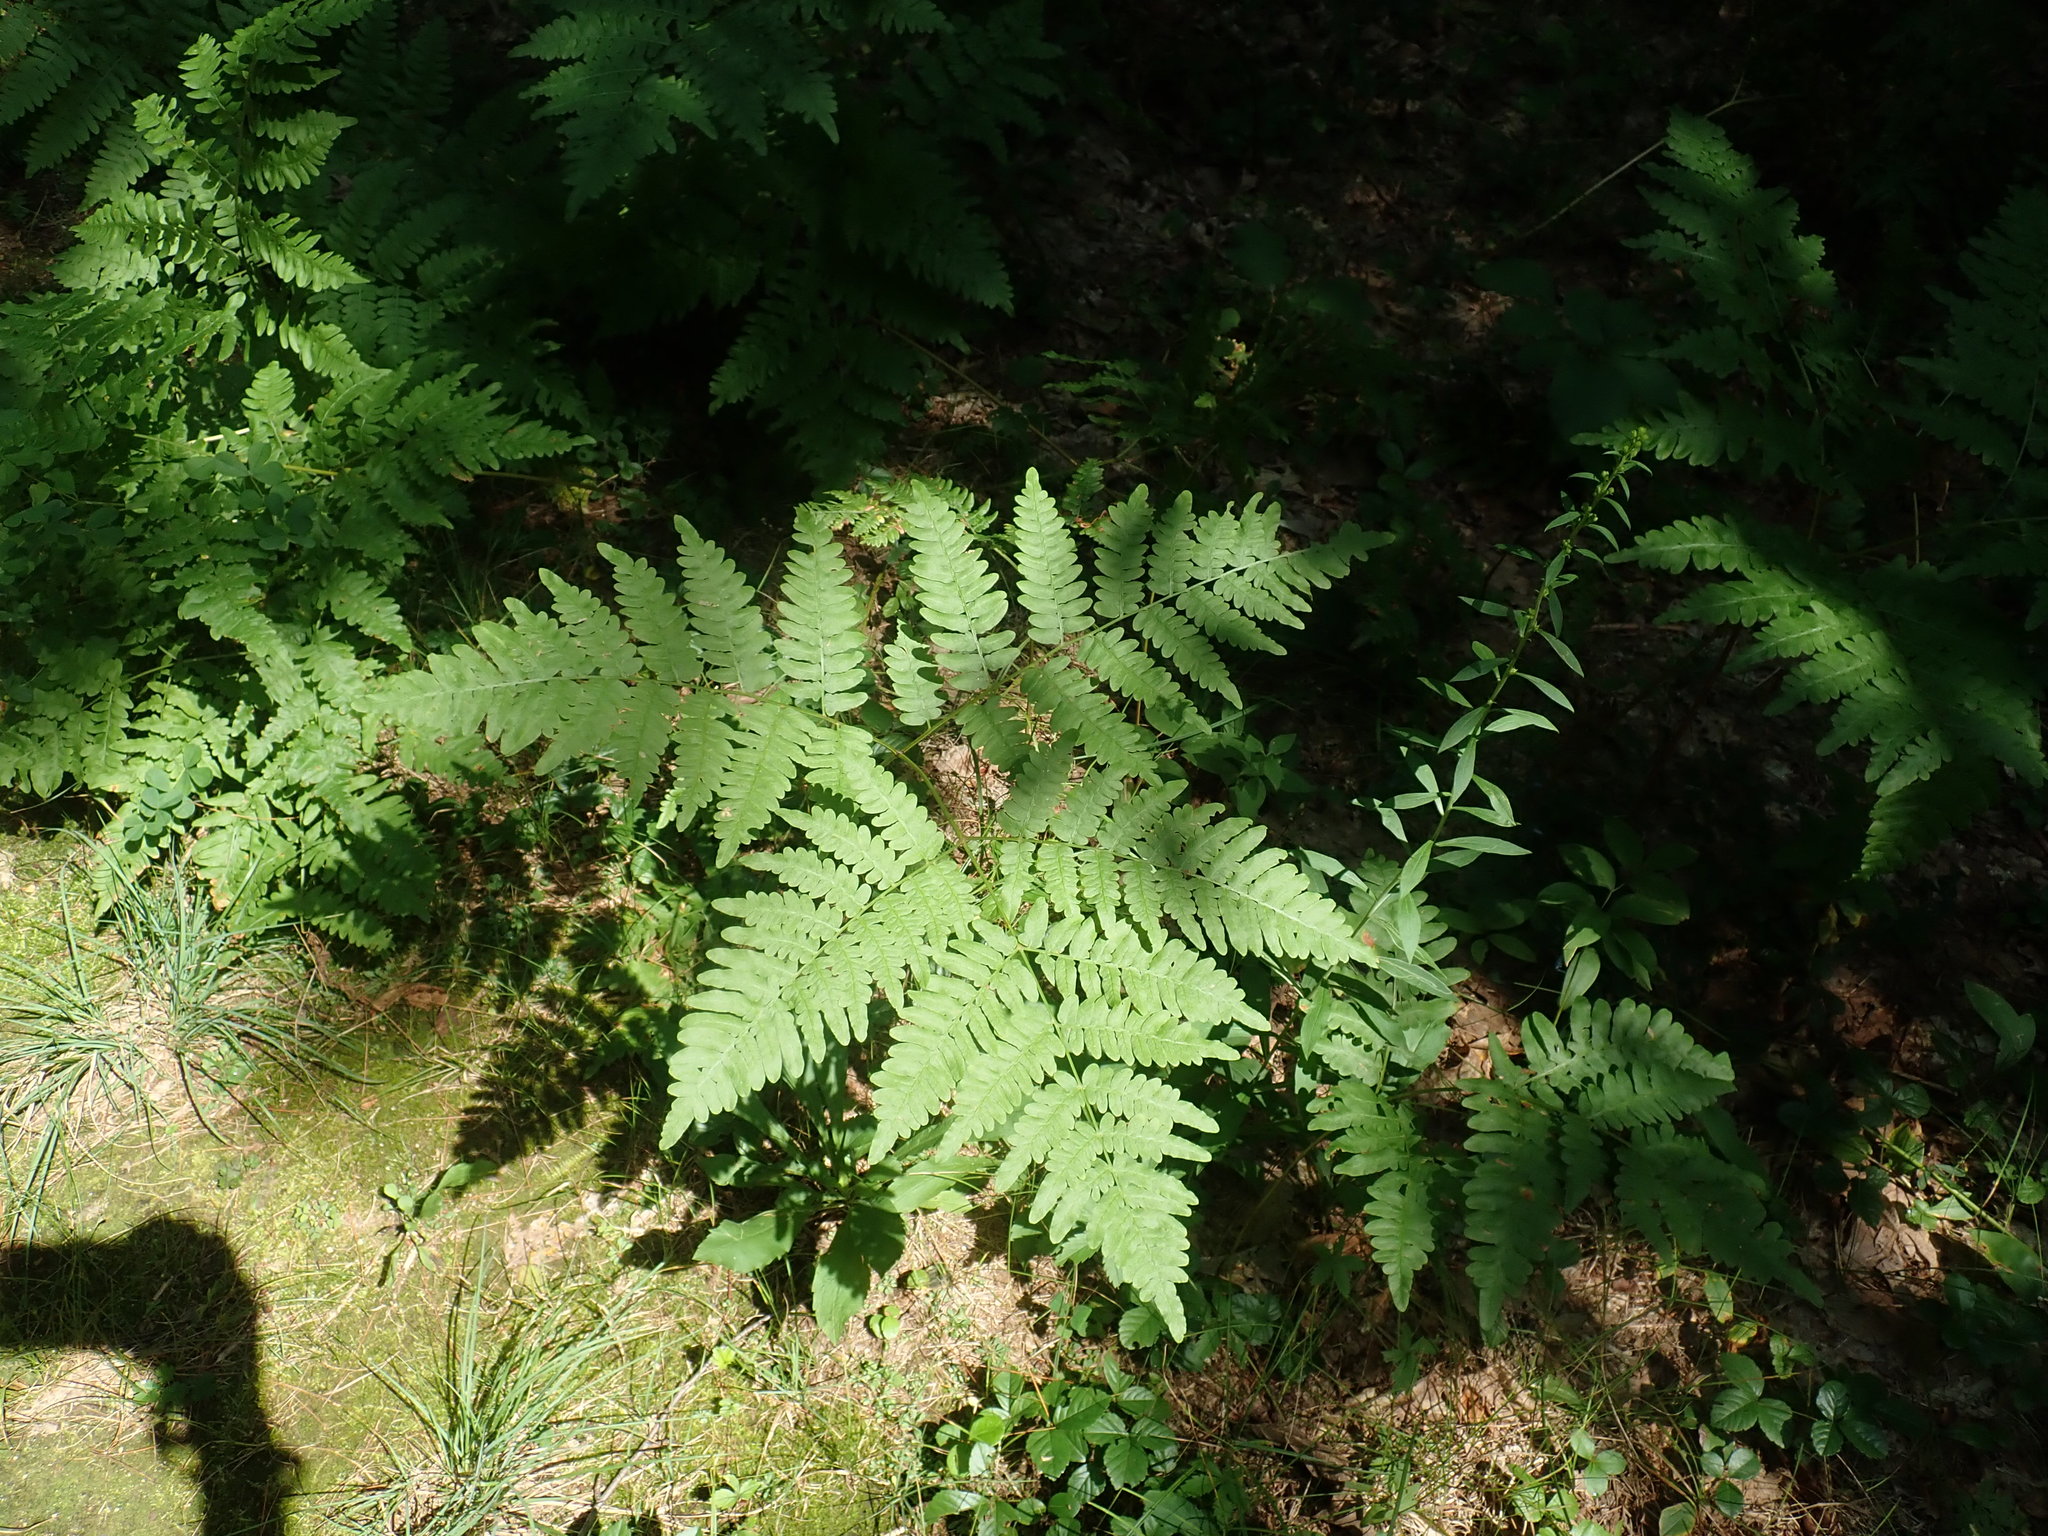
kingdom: Plantae
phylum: Tracheophyta
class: Polypodiopsida
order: Polypodiales
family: Dennstaedtiaceae
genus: Pteridium
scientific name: Pteridium aquilinum
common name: Bracken
